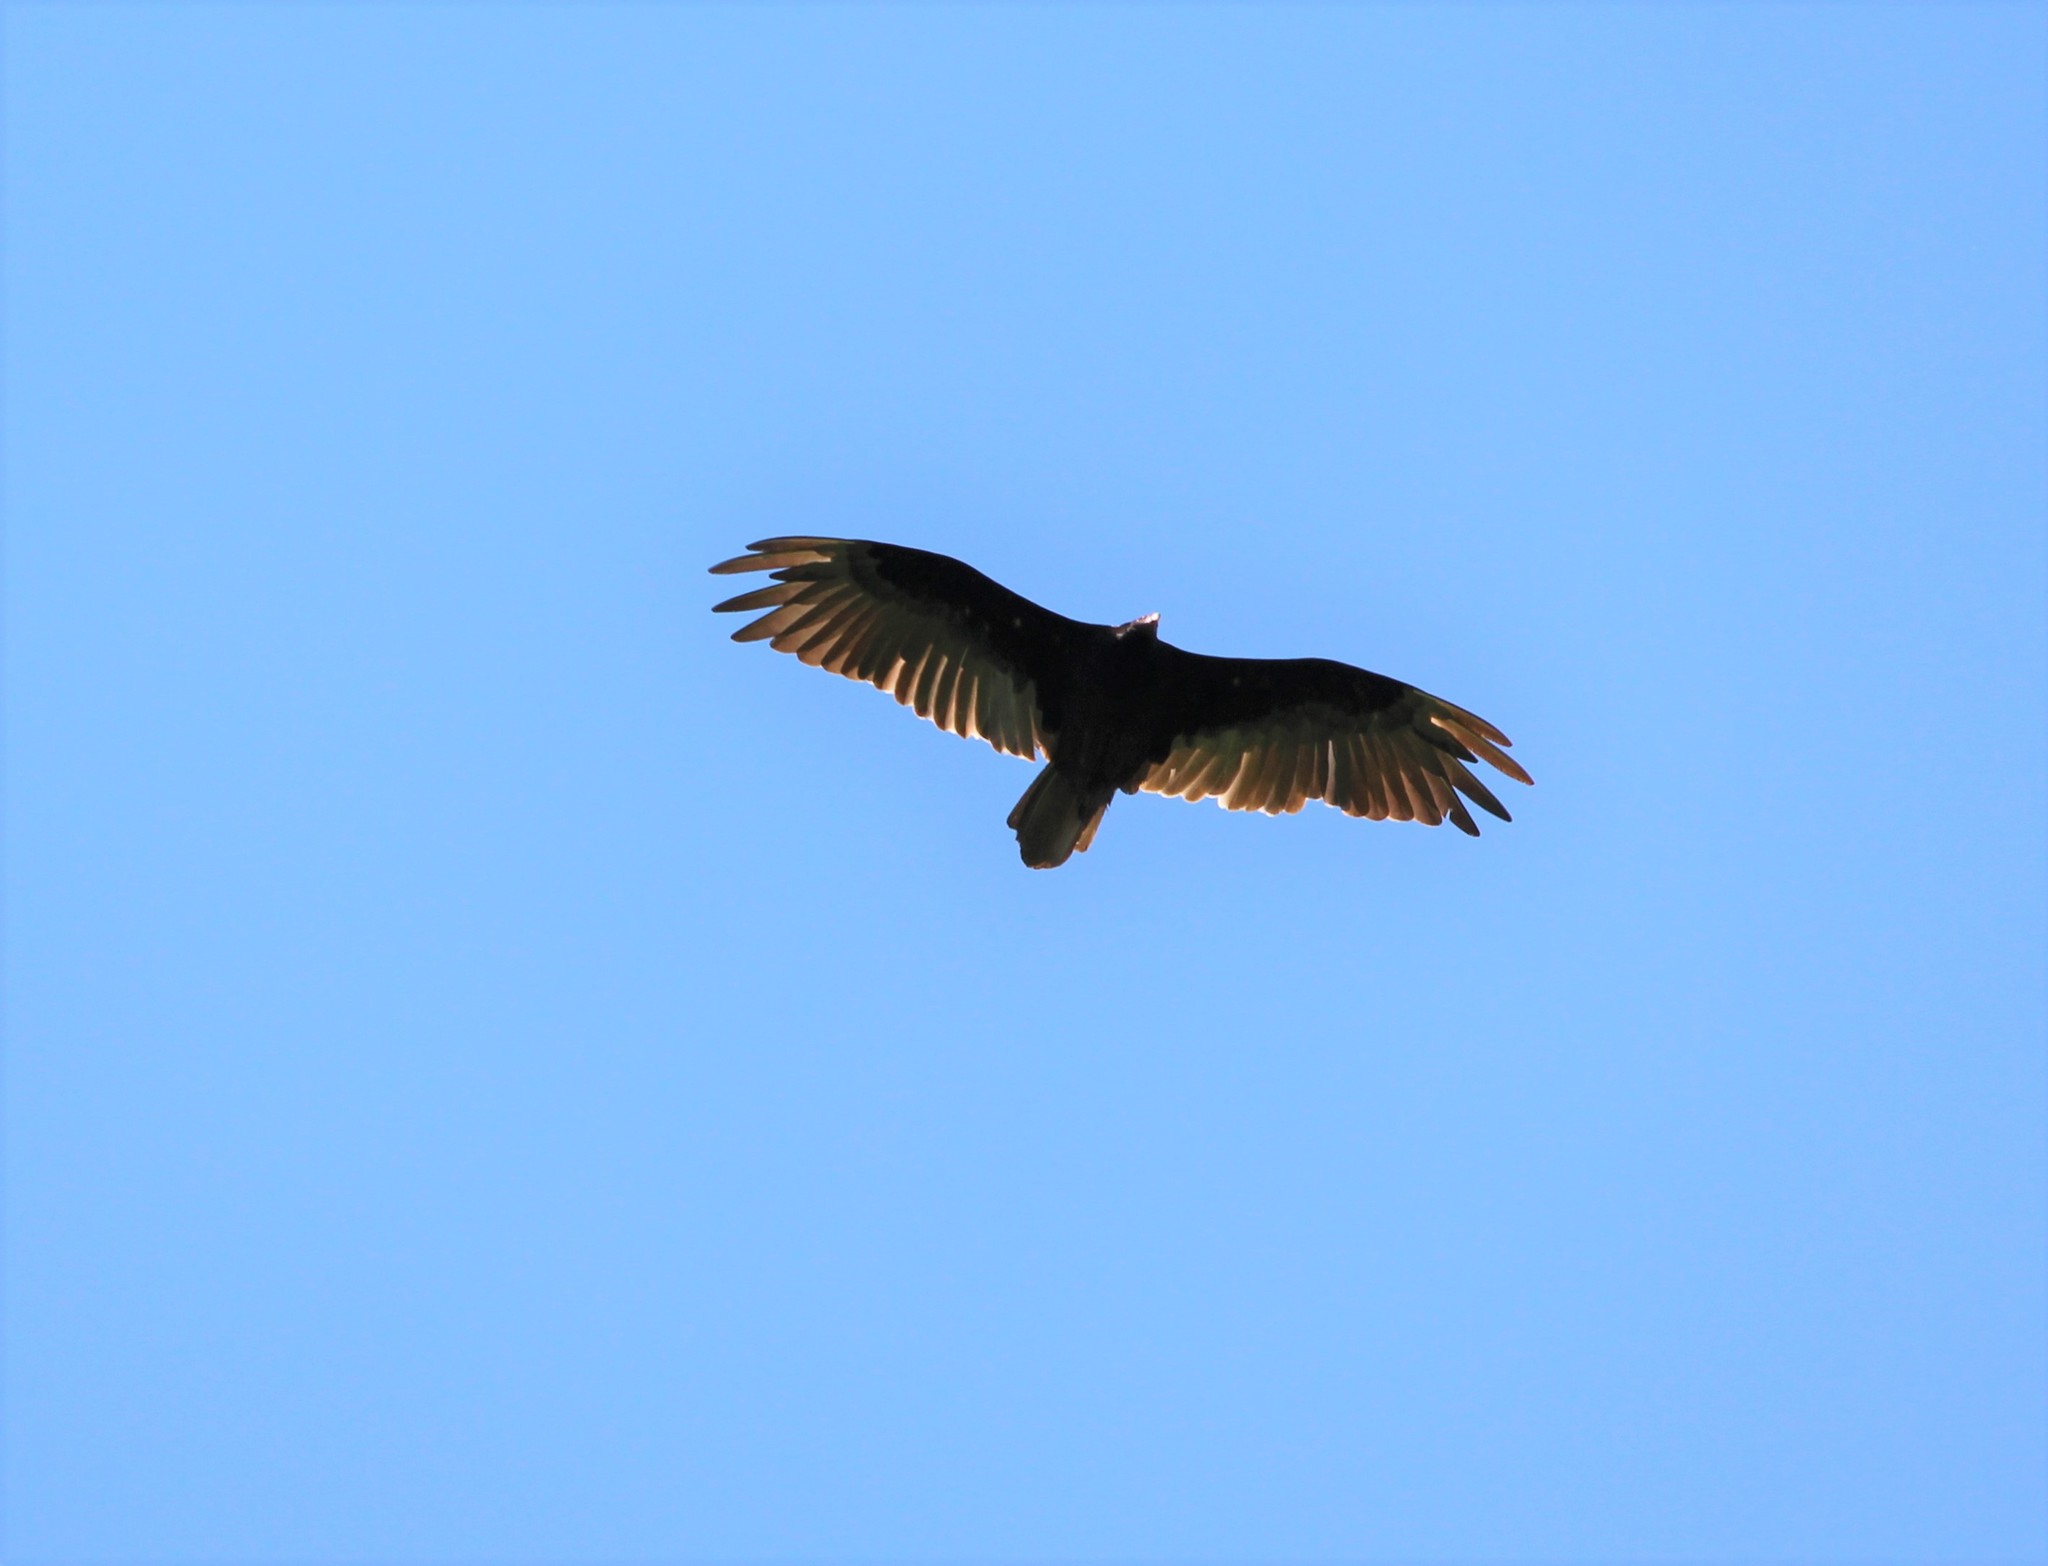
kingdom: Animalia
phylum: Chordata
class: Aves
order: Accipitriformes
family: Cathartidae
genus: Cathartes
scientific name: Cathartes aura
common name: Turkey vulture
